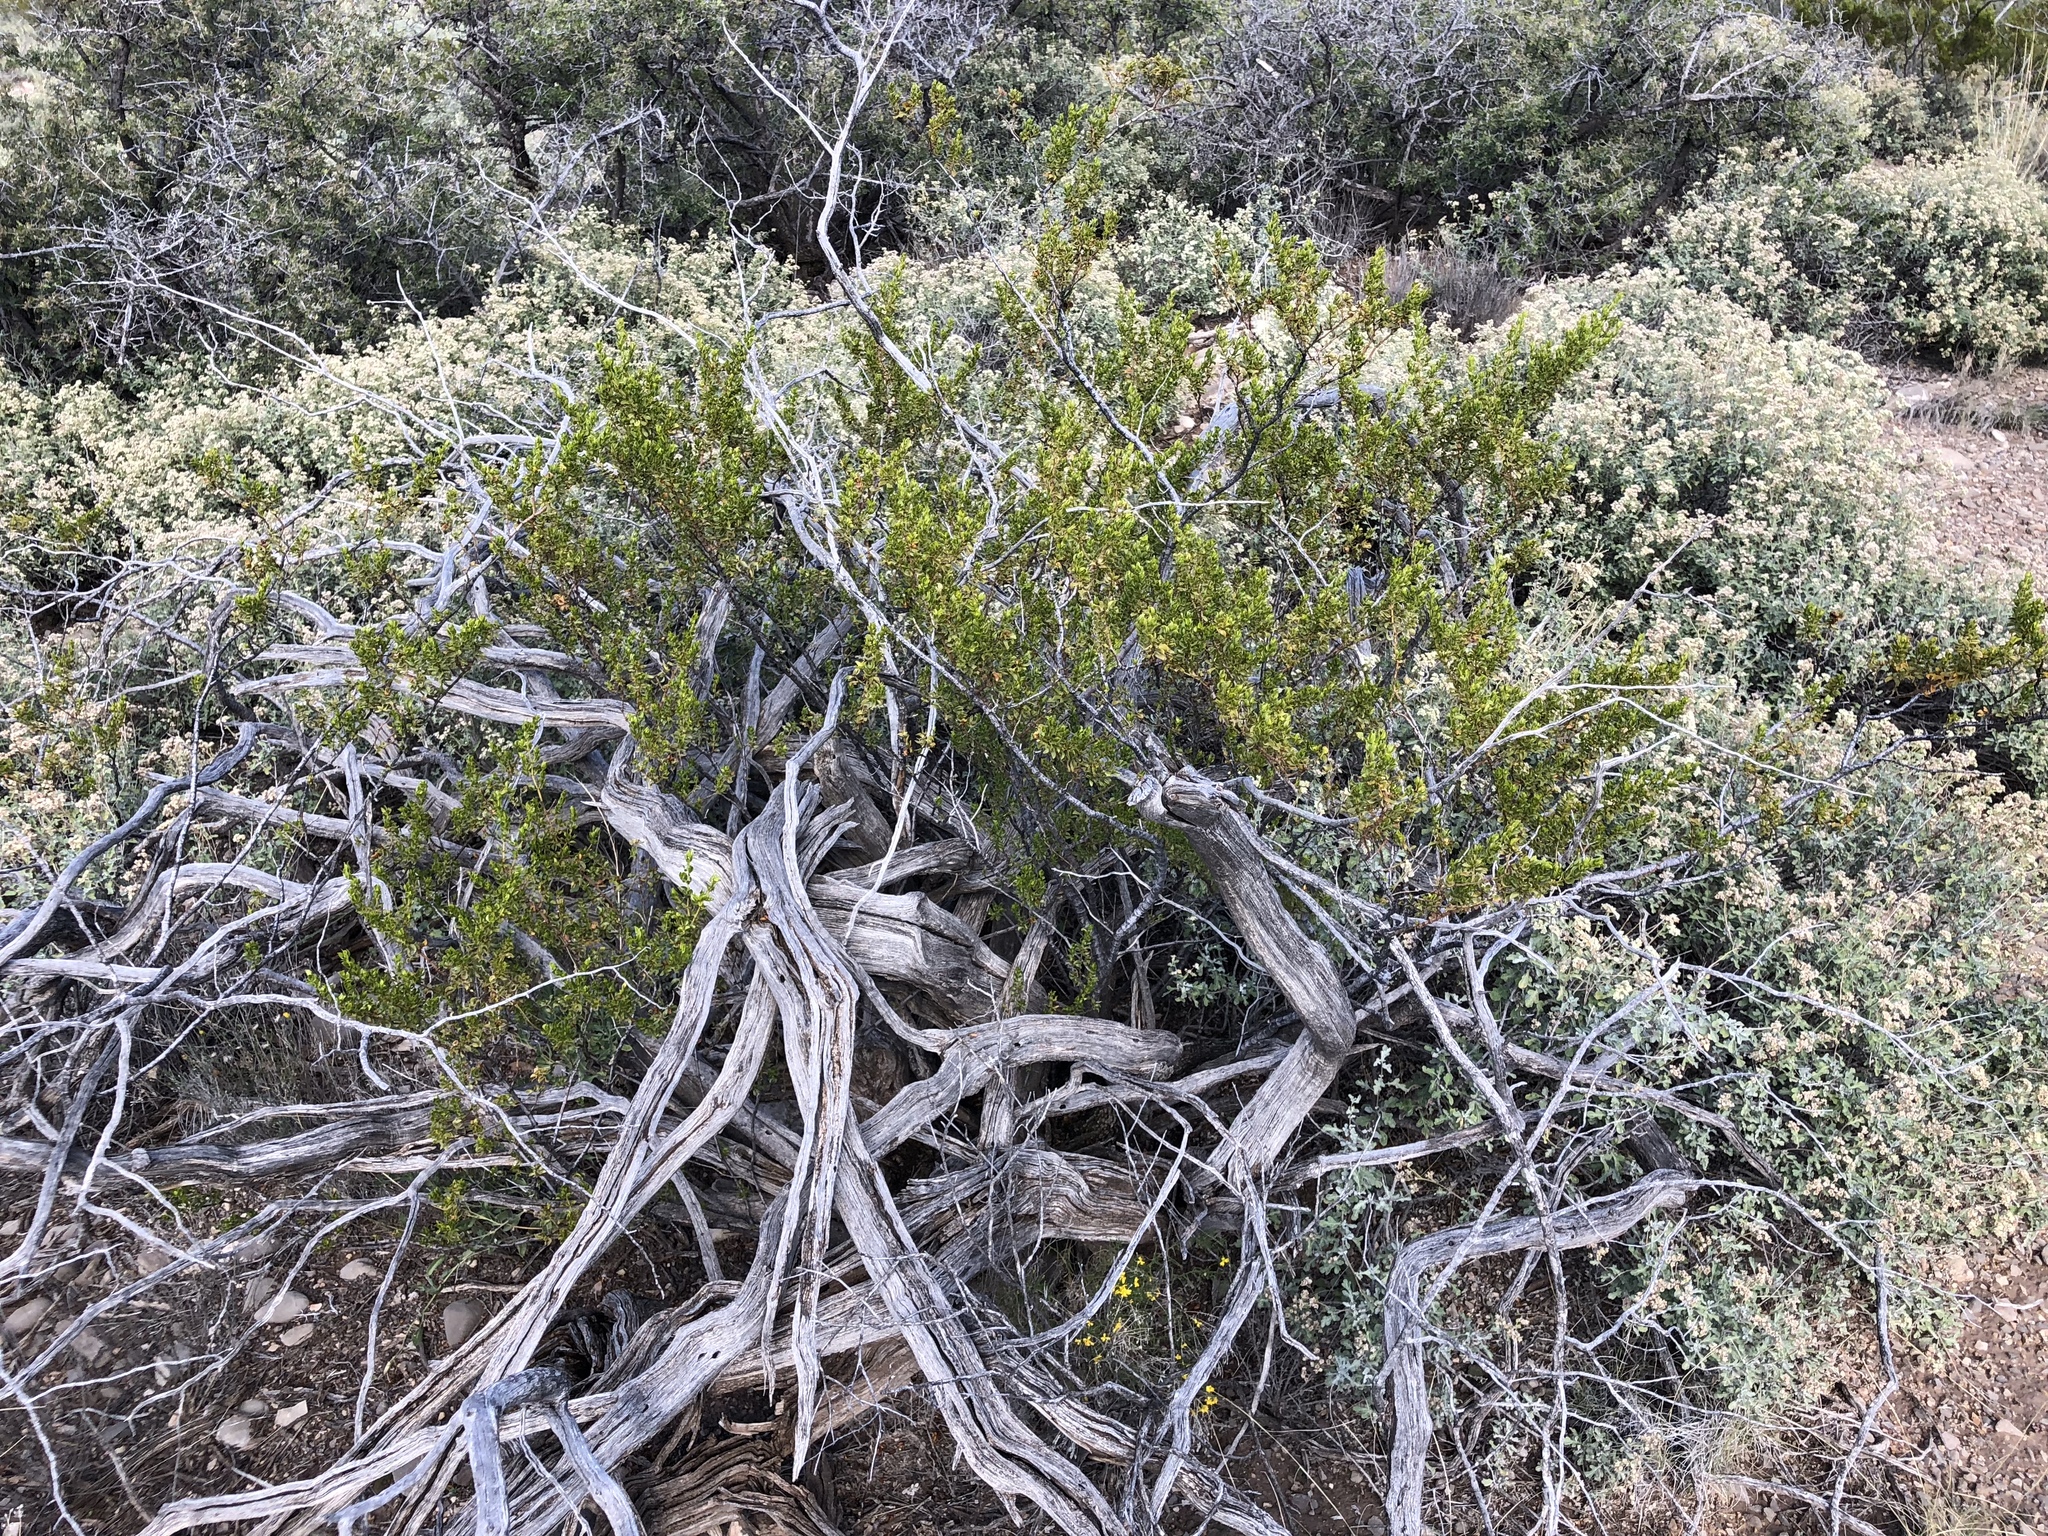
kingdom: Plantae
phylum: Tracheophyta
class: Magnoliopsida
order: Zygophyllales
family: Zygophyllaceae
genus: Larrea
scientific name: Larrea tridentata
